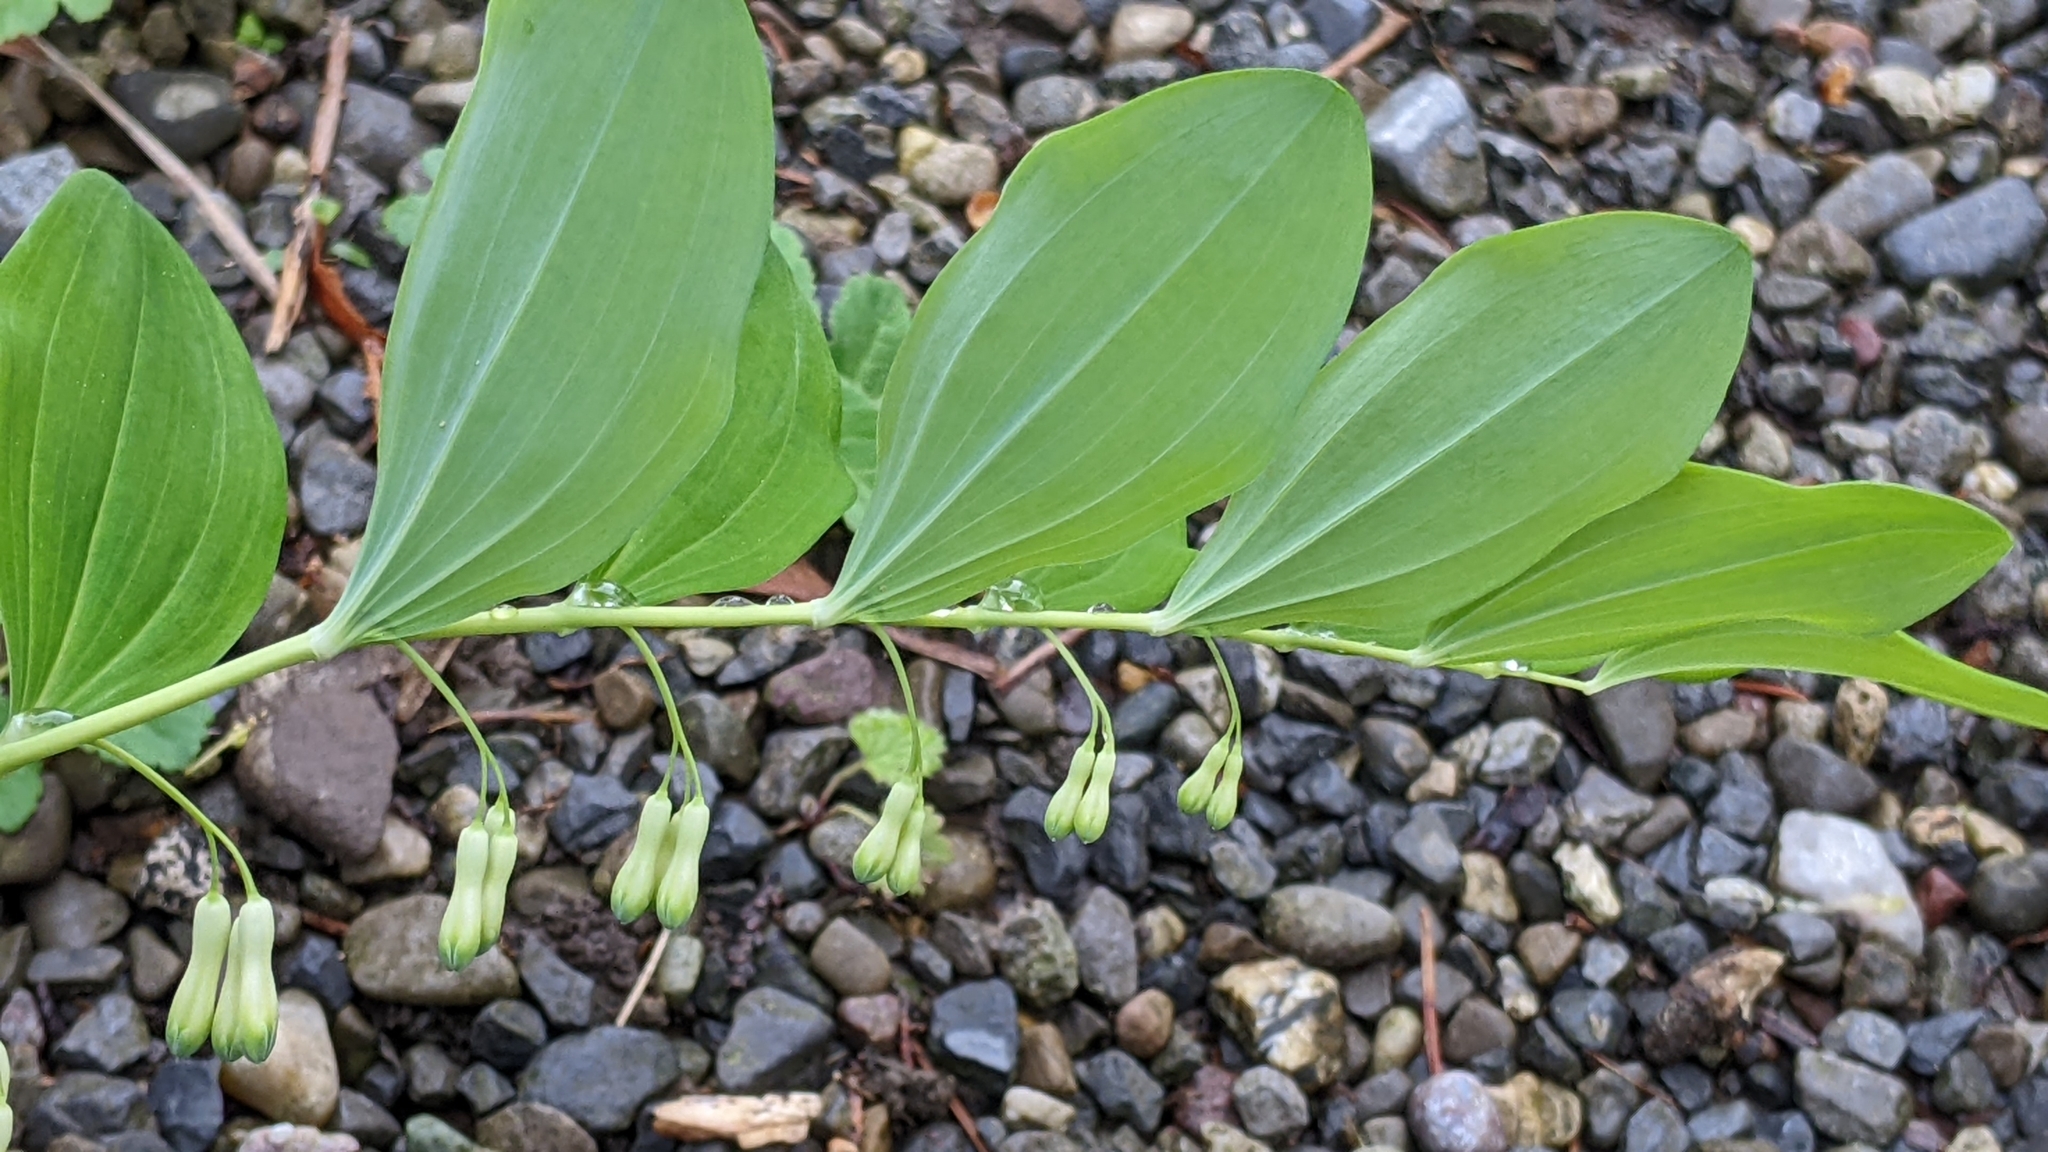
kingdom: Plantae
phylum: Tracheophyta
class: Liliopsida
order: Asparagales
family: Asparagaceae
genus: Polygonatum
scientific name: Polygonatum multiflorum
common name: Solomon's-seal
